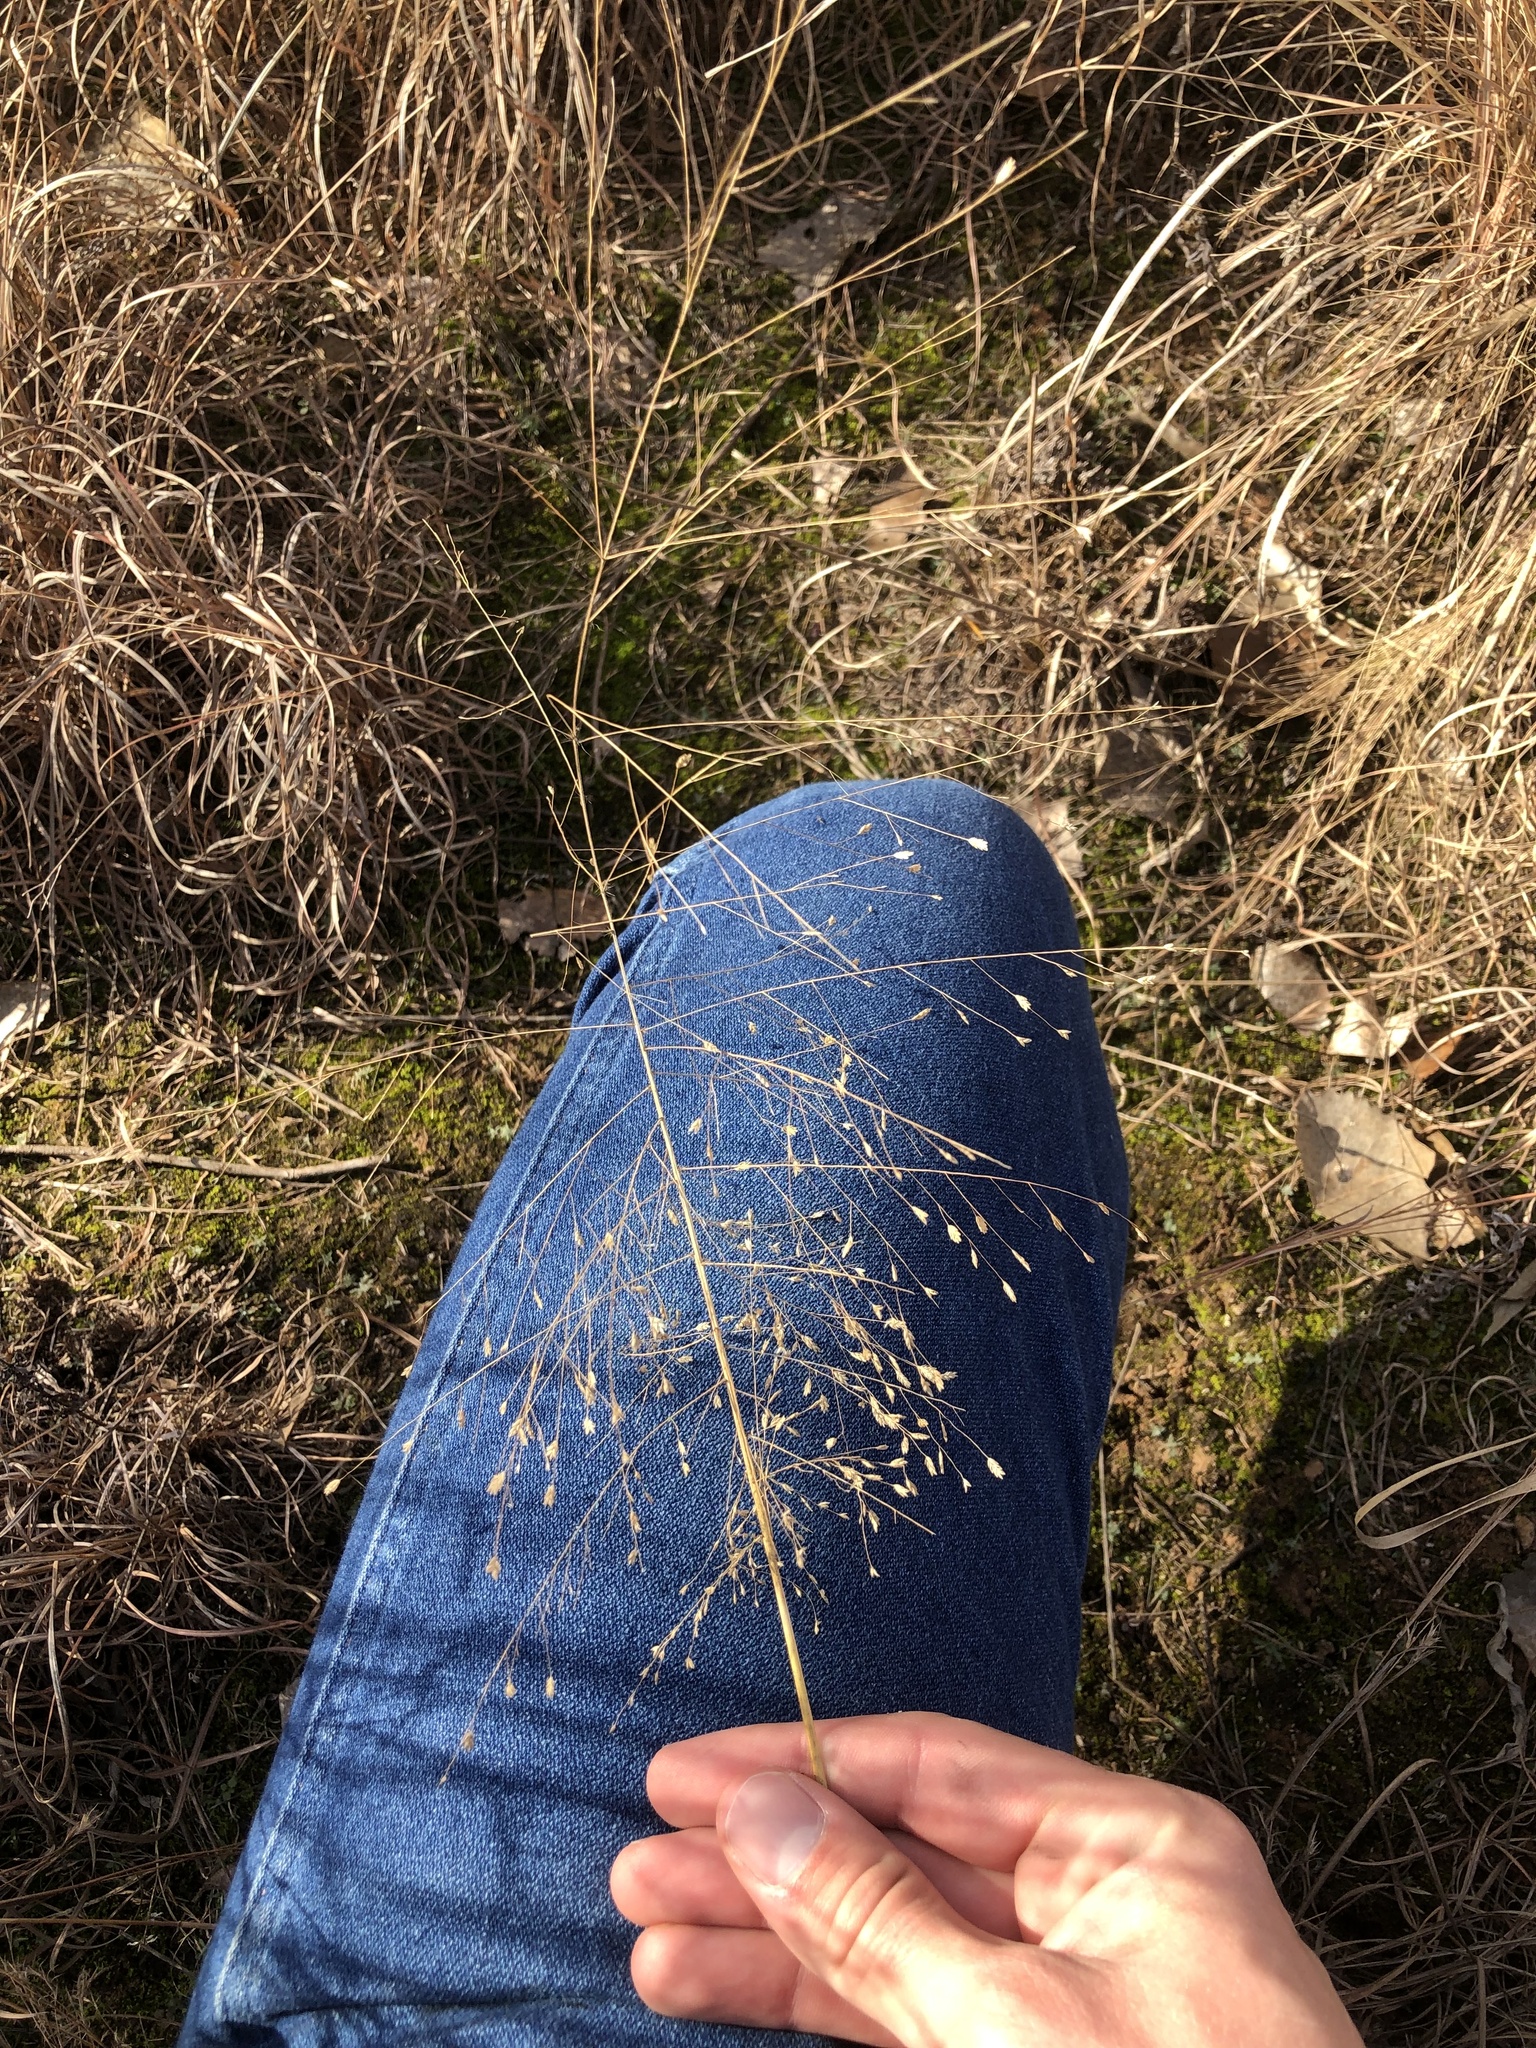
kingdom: Plantae
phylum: Tracheophyta
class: Liliopsida
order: Poales
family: Poaceae
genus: Panicum
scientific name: Panicum virgatum
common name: Switchgrass
